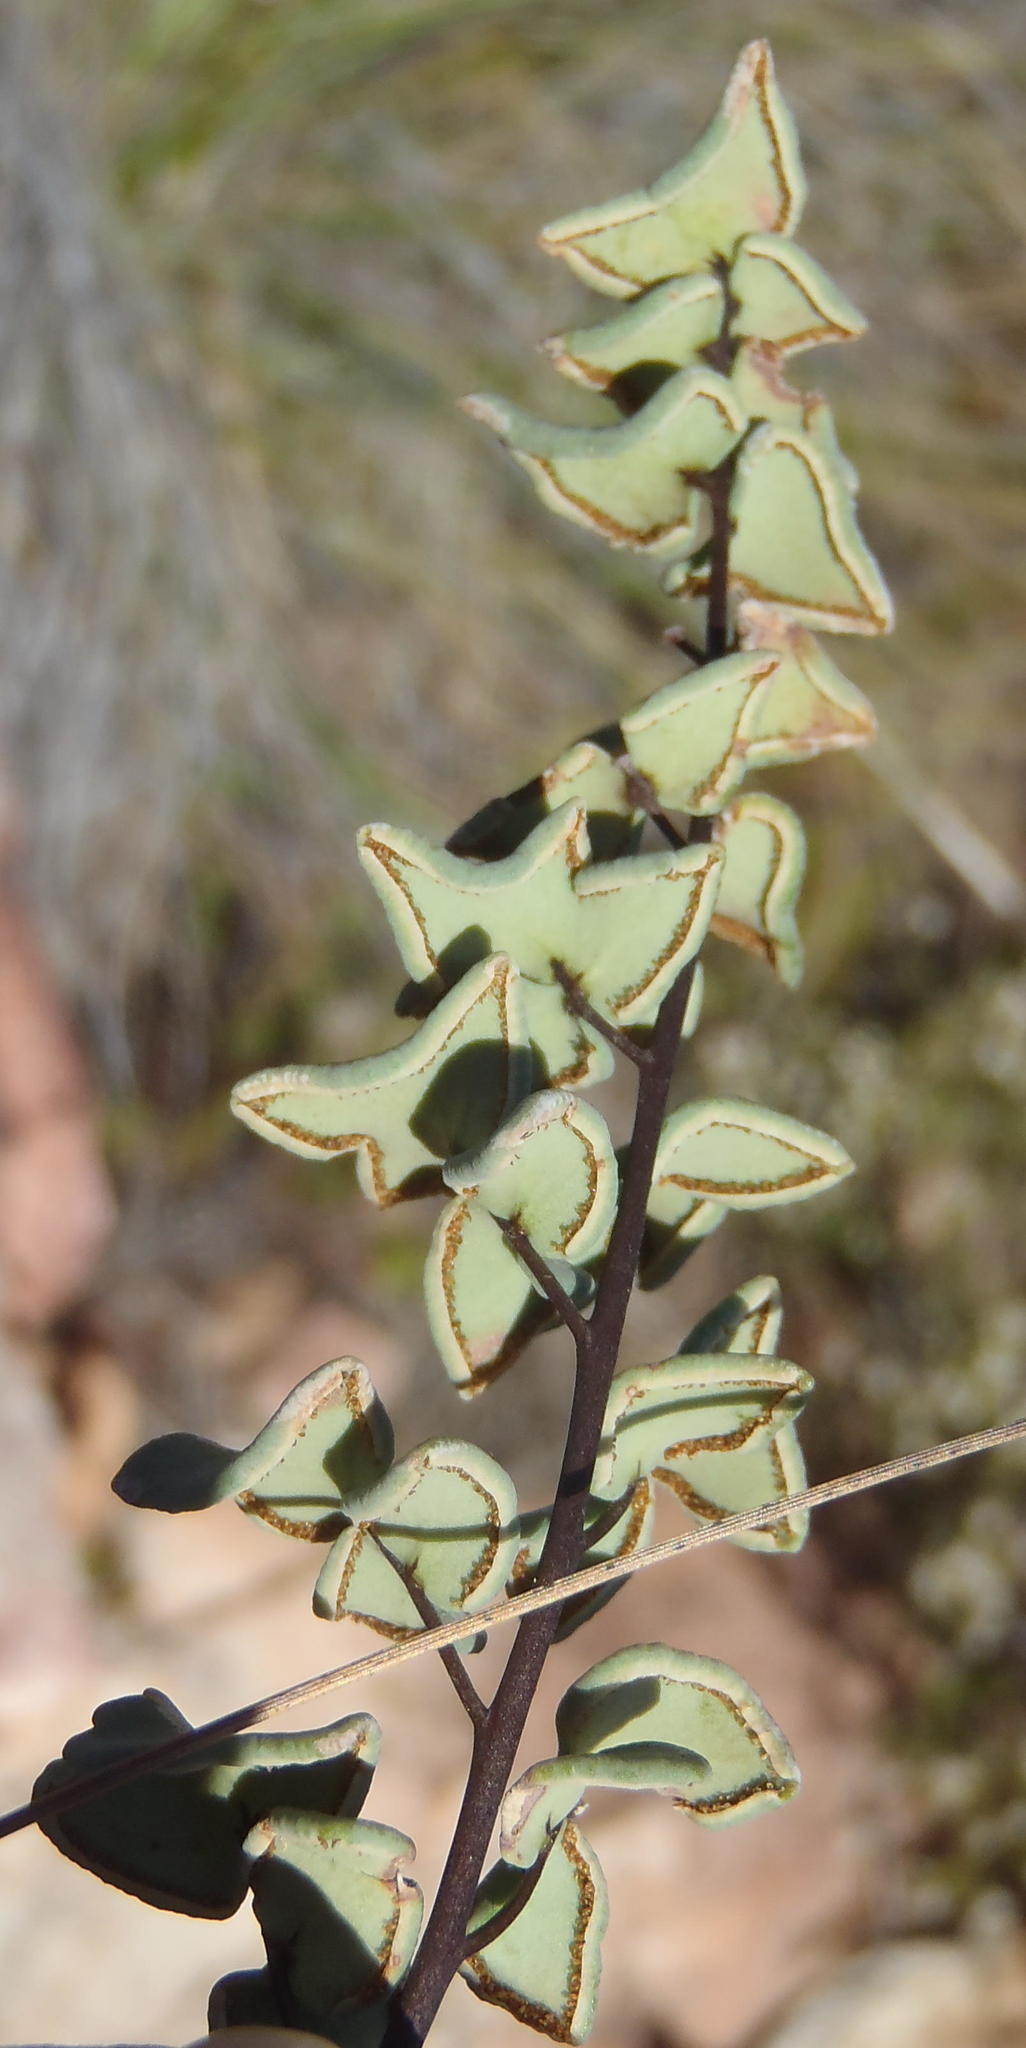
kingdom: Plantae
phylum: Tracheophyta
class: Polypodiopsida
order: Polypodiales
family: Pteridaceae
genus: Pellaea
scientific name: Pellaea leucomelas
